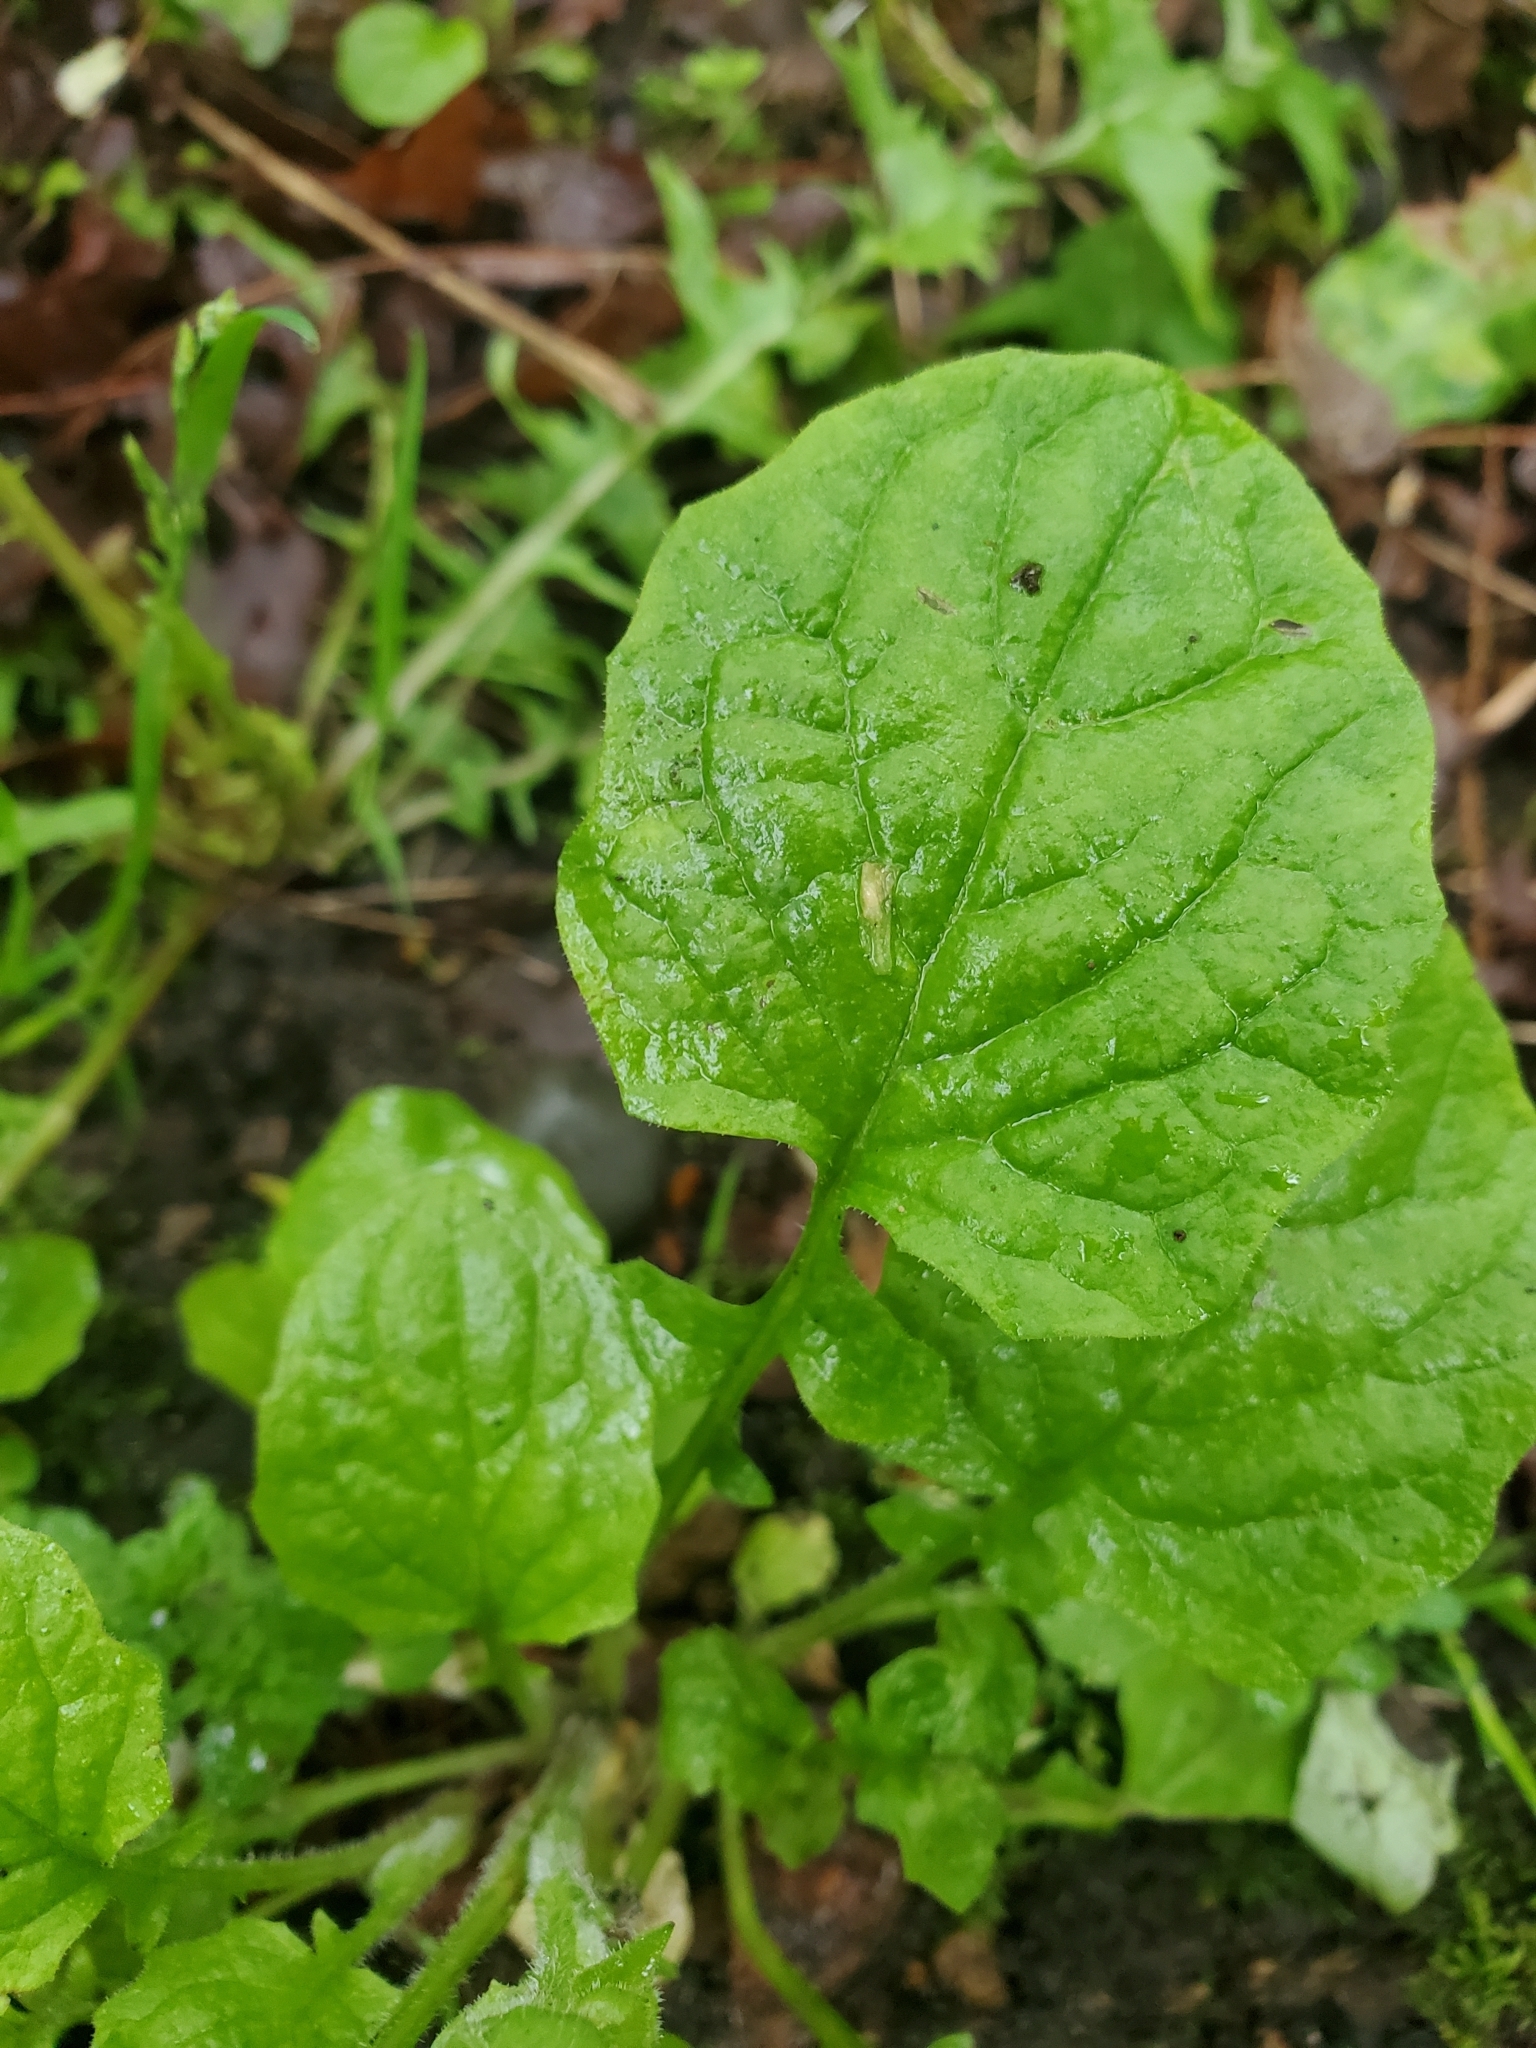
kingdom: Plantae
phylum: Tracheophyta
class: Magnoliopsida
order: Asterales
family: Asteraceae
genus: Lapsana
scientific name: Lapsana communis
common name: Nipplewort
